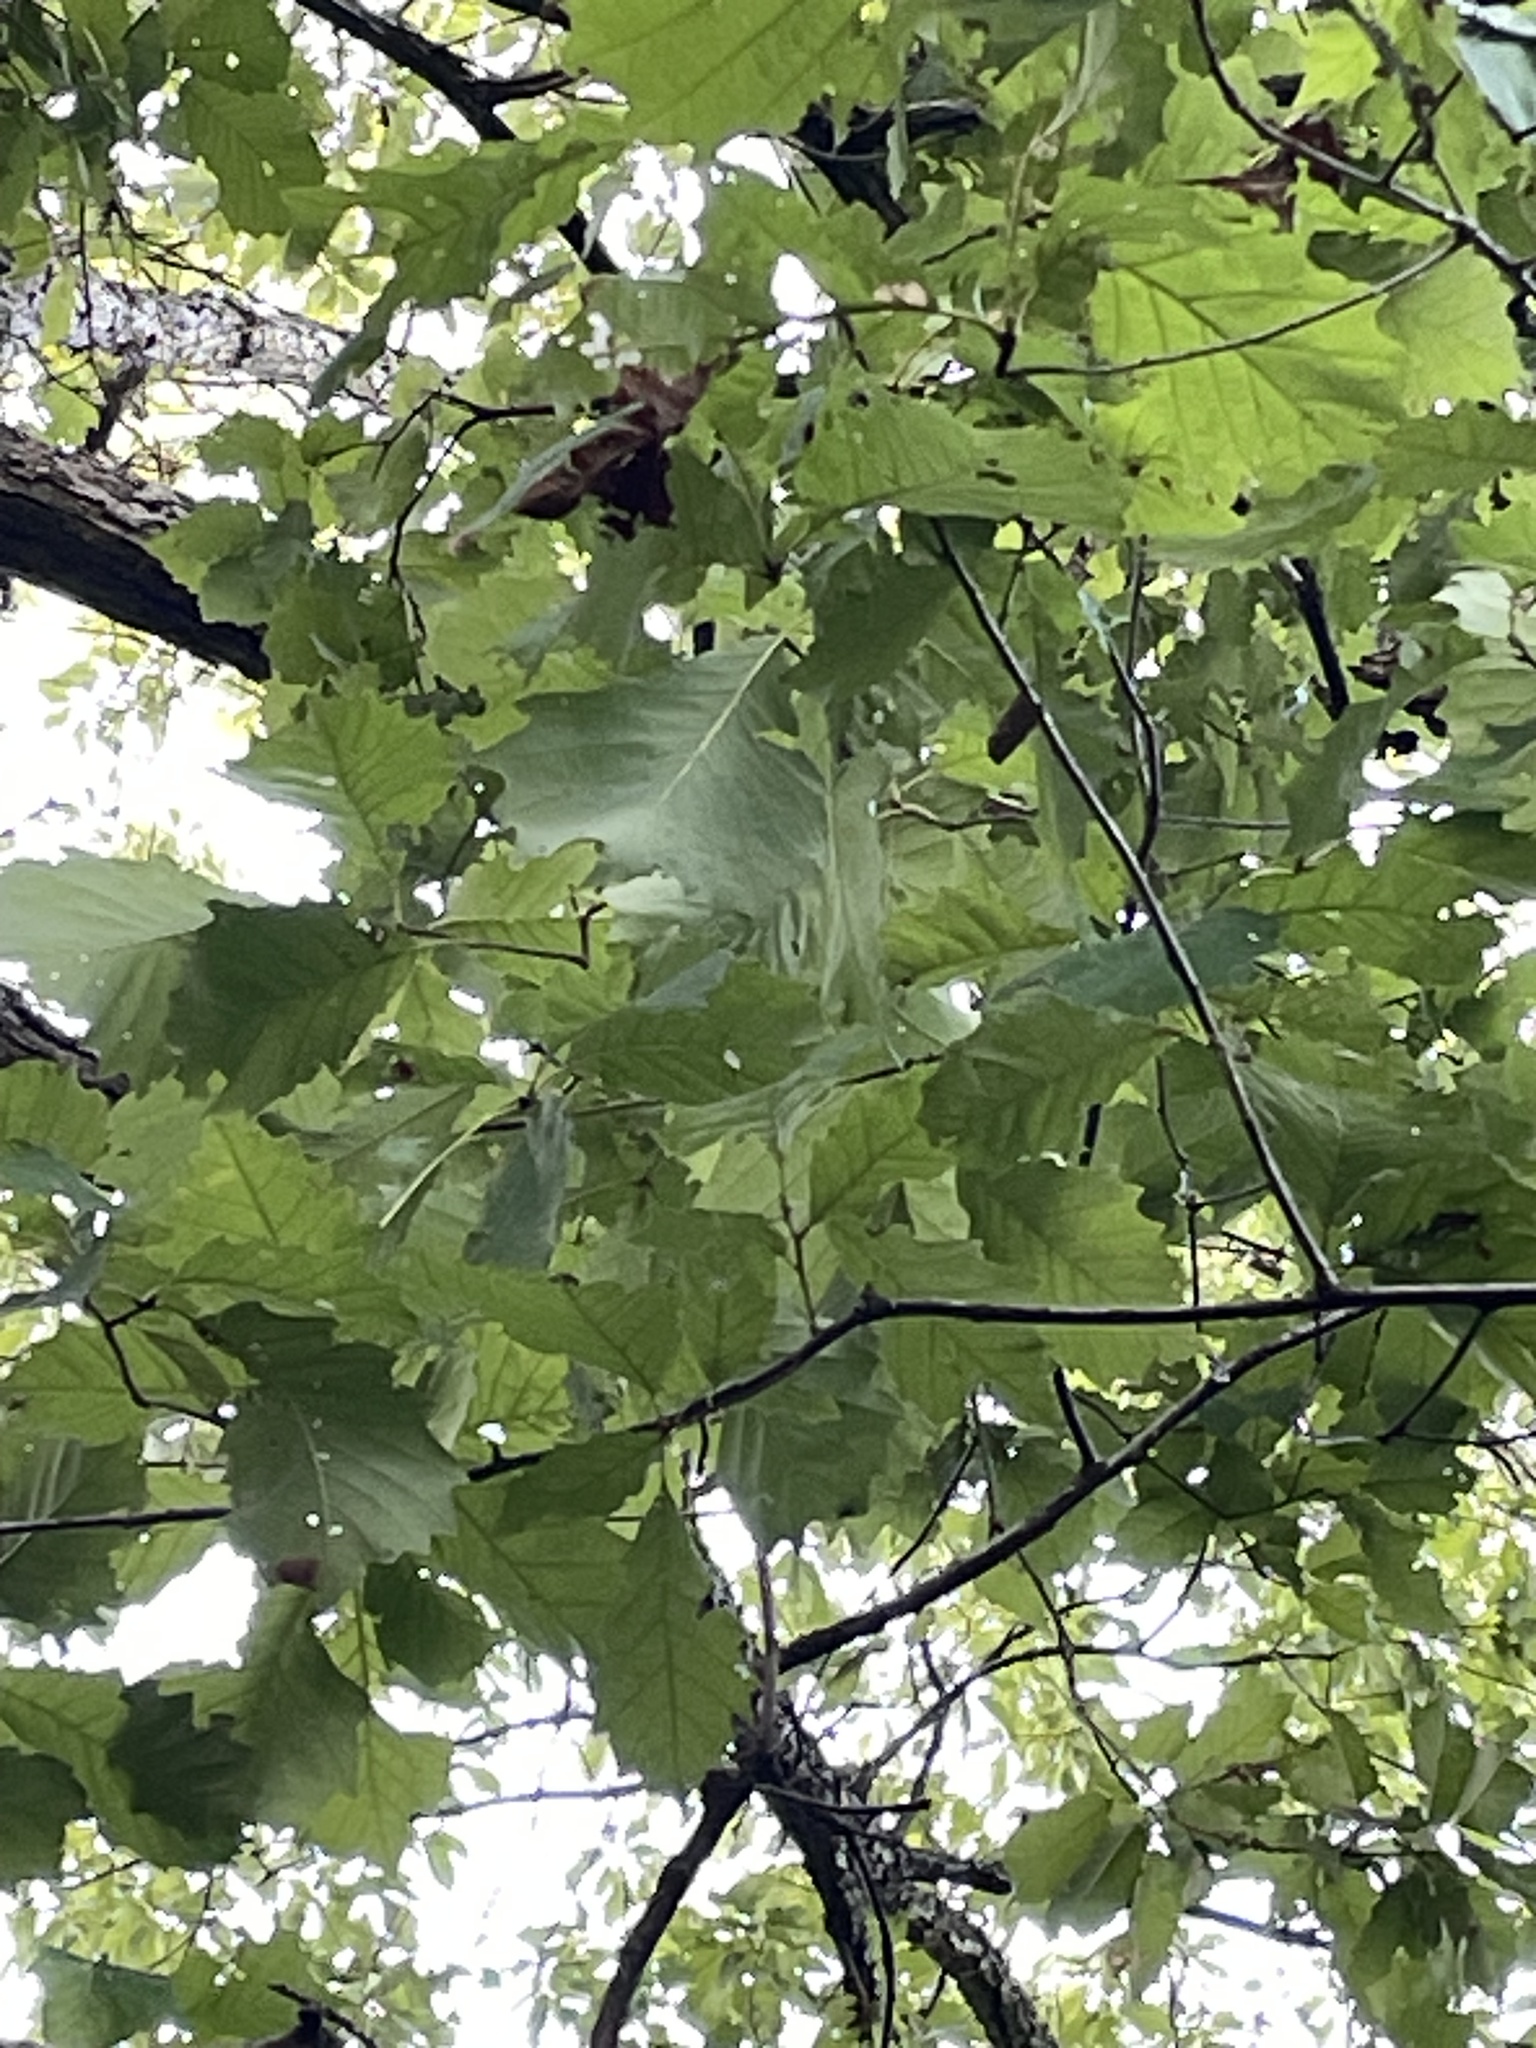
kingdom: Plantae
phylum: Tracheophyta
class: Magnoliopsida
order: Fagales
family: Fagaceae
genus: Quercus
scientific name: Quercus muehlenbergii
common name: Chinkapin oak
